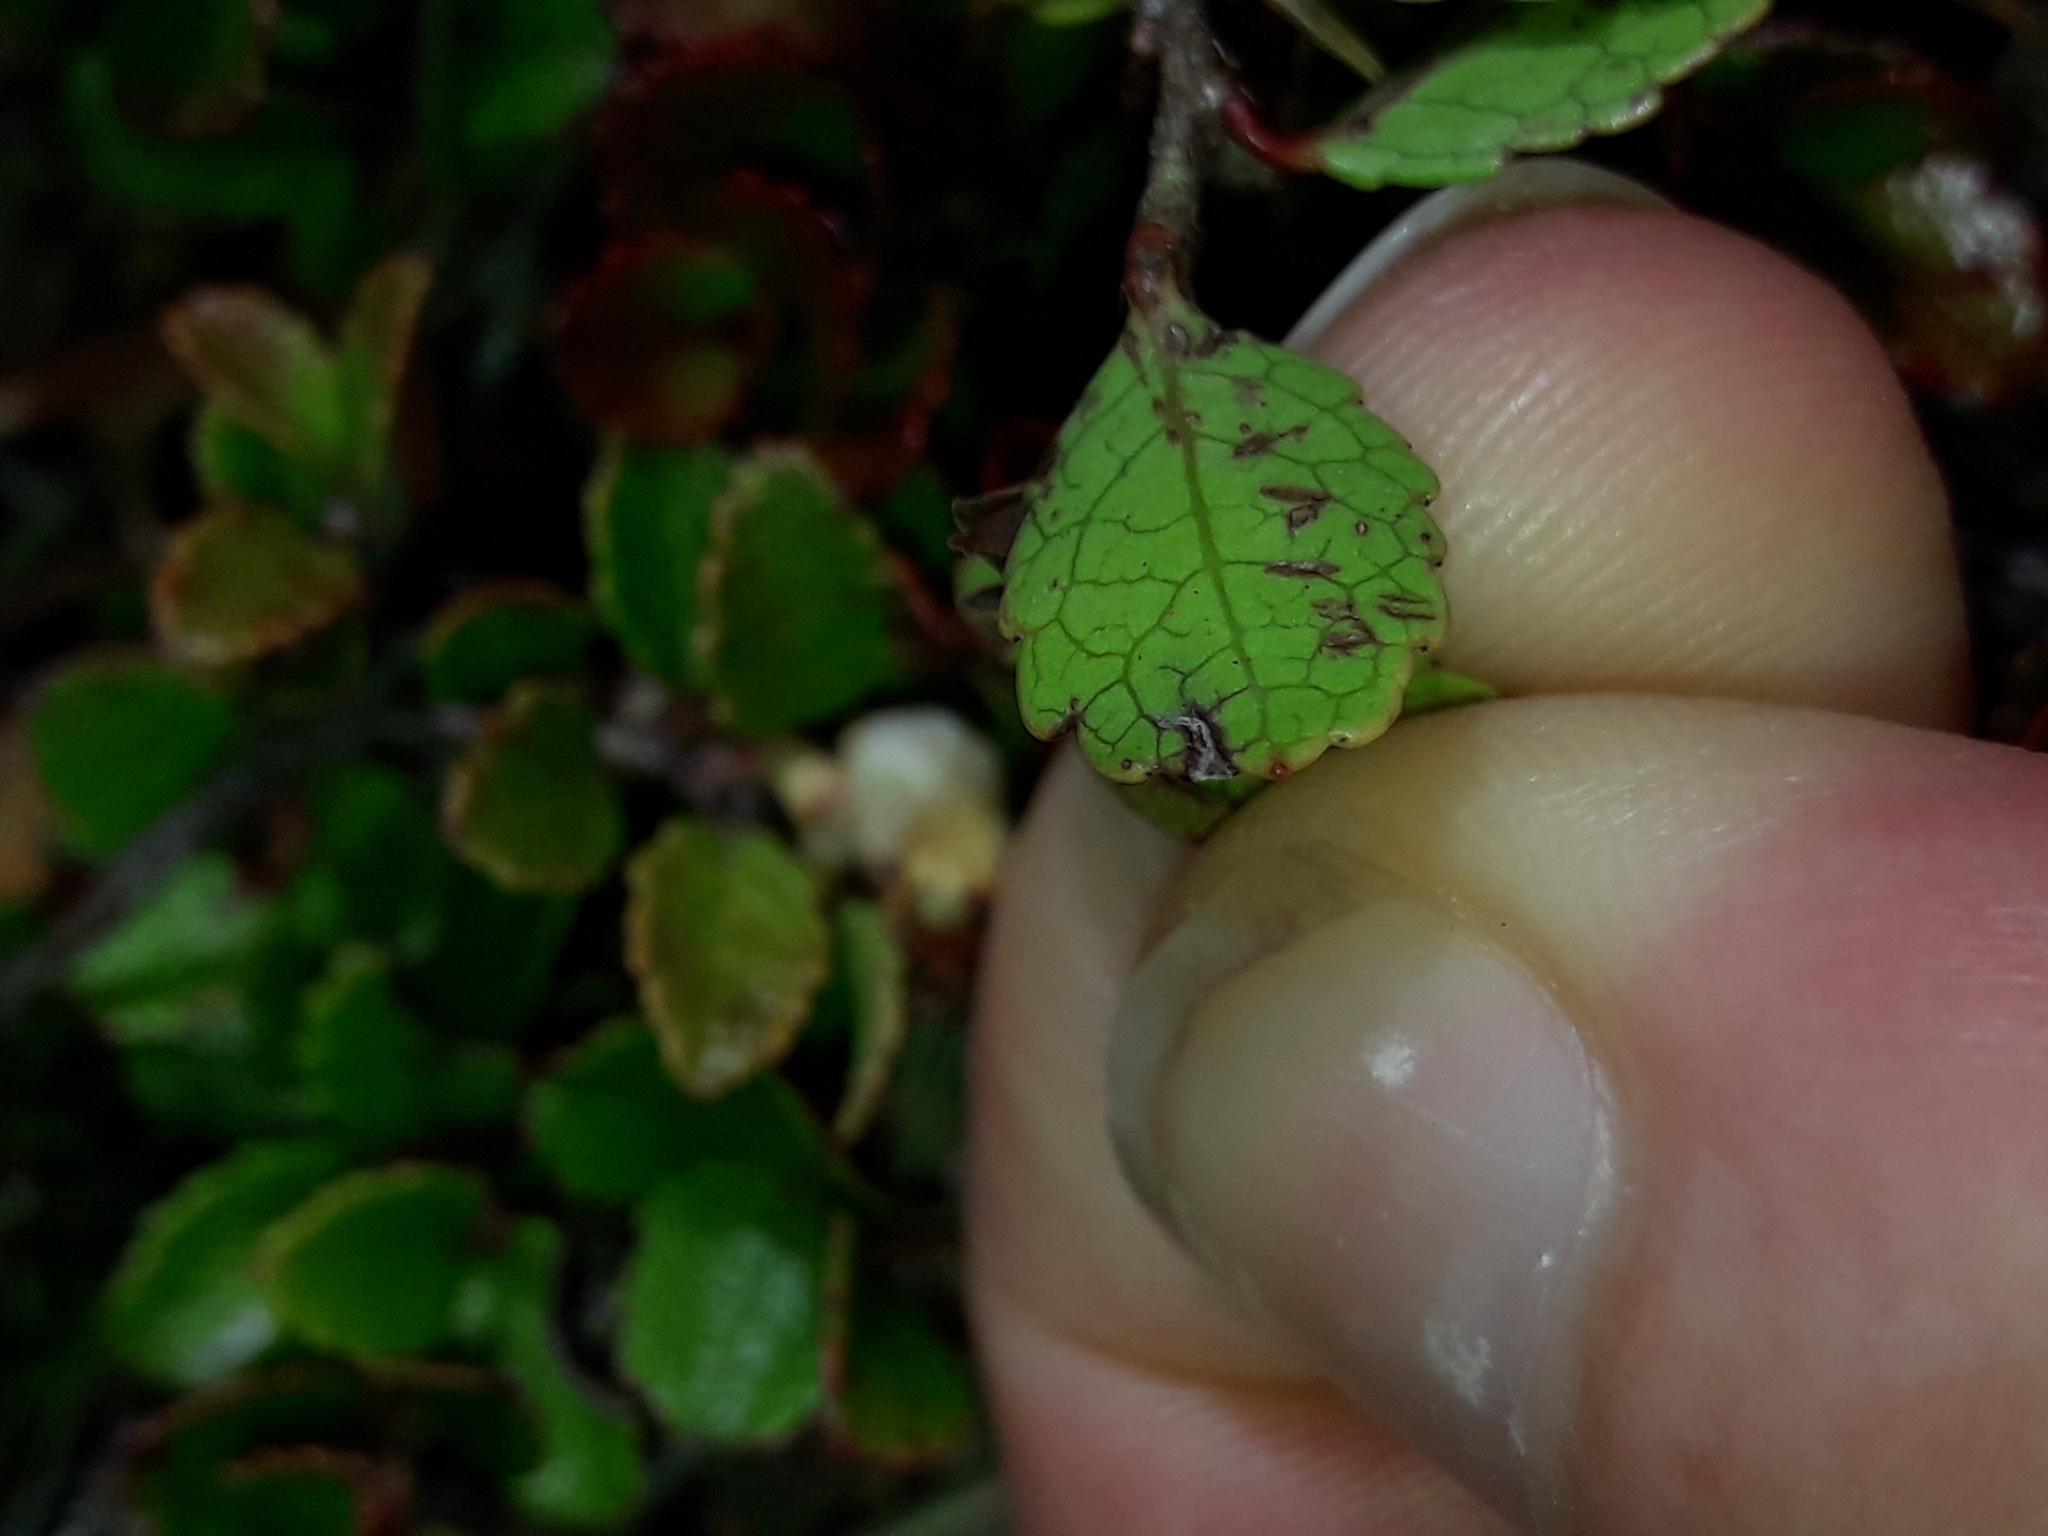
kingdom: Plantae
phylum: Tracheophyta
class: Magnoliopsida
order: Ericales
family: Ericaceae
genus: Gaultheria
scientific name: Gaultheria depressa
